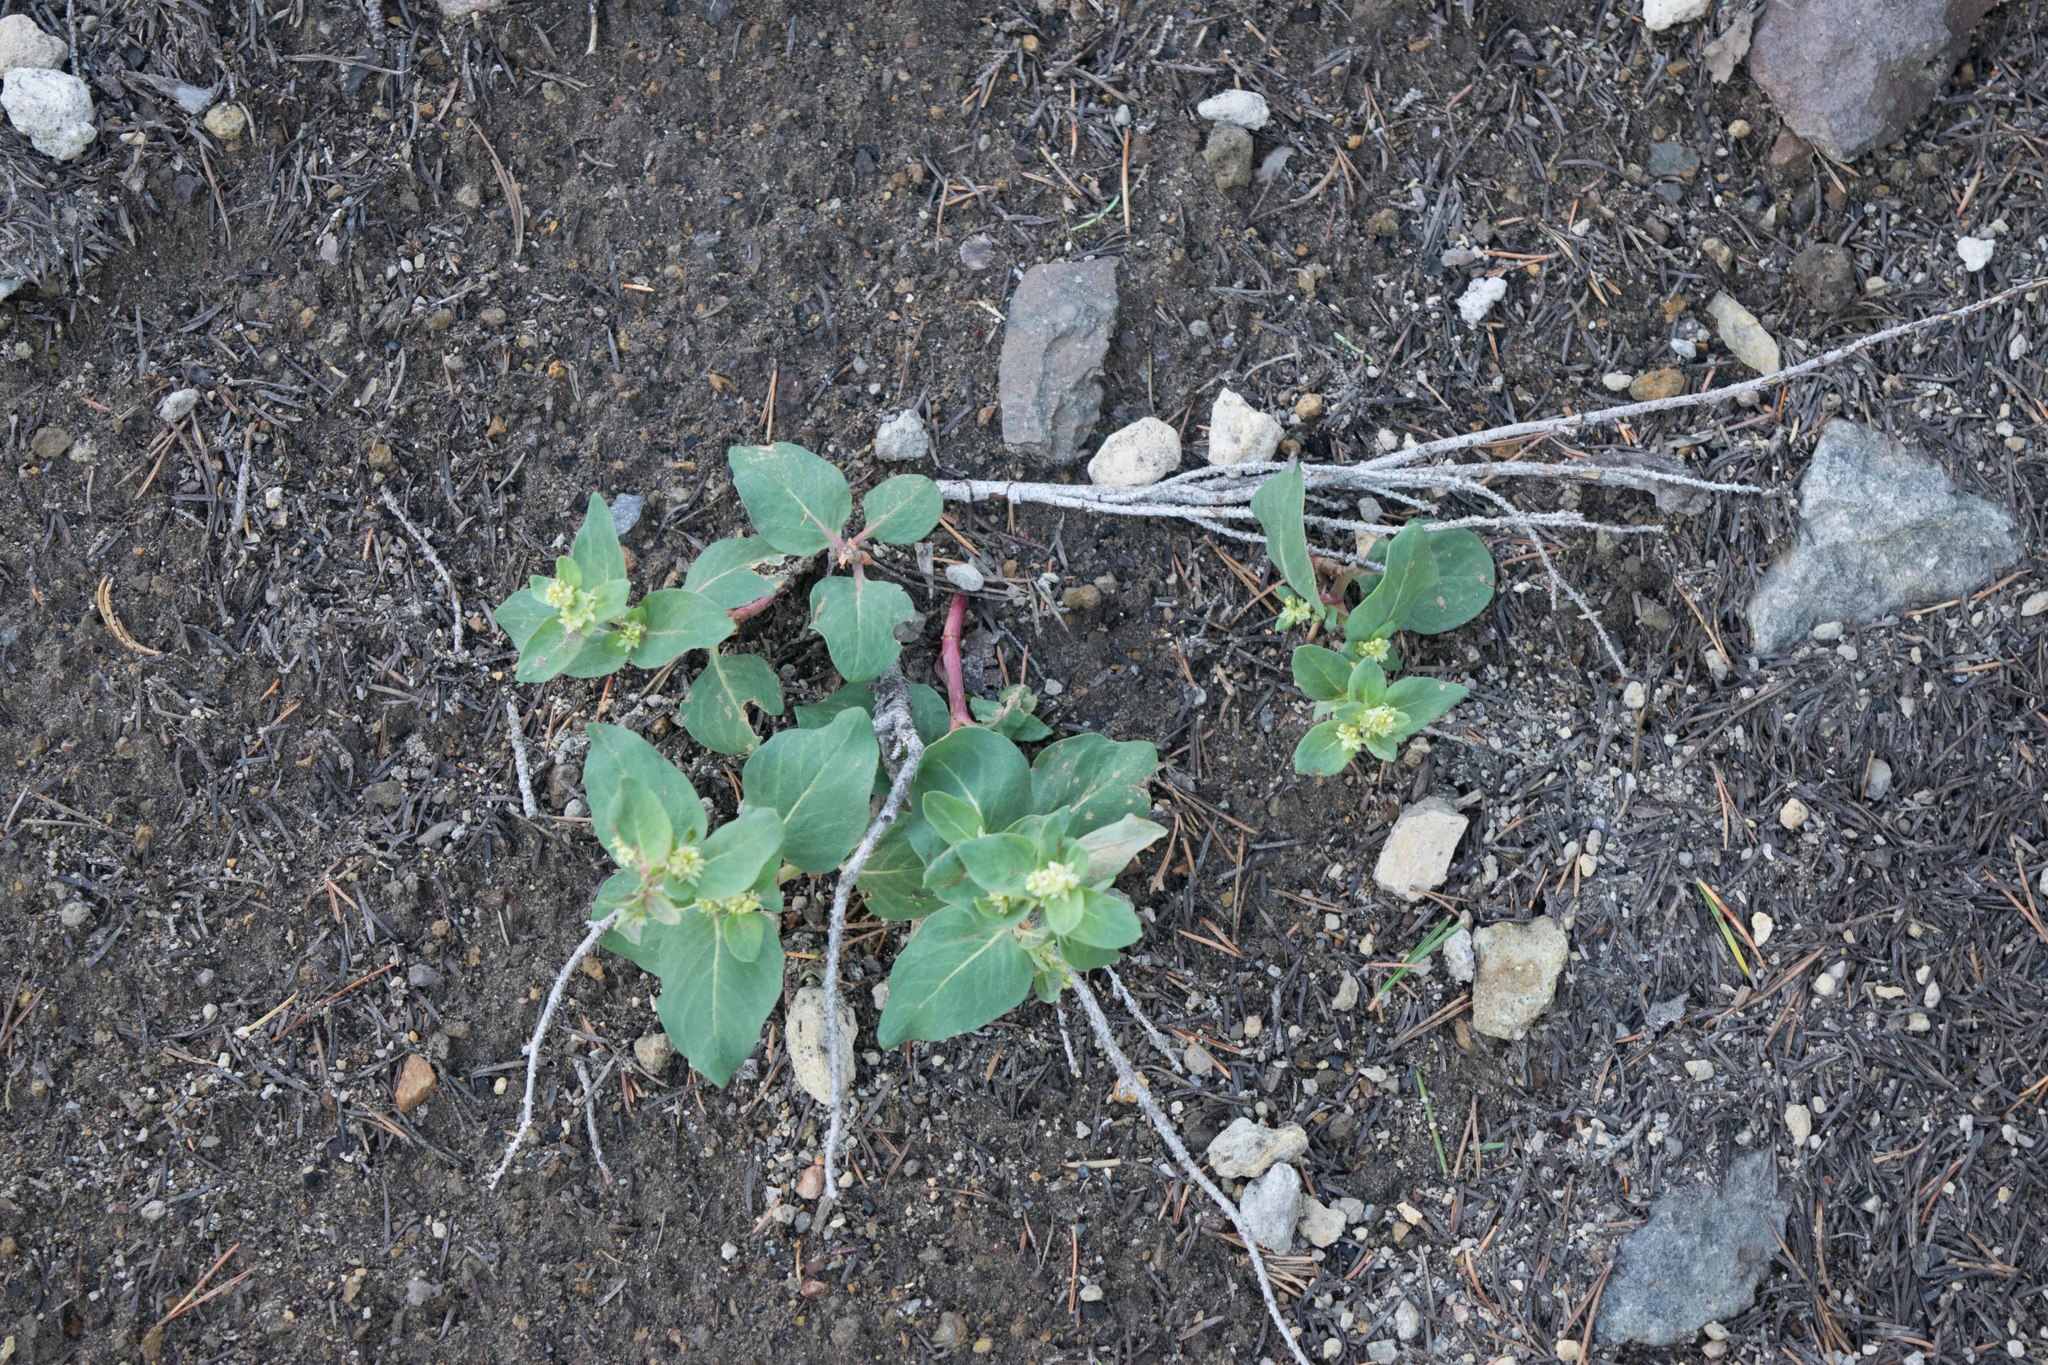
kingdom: Plantae
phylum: Tracheophyta
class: Magnoliopsida
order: Caryophyllales
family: Polygonaceae
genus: Koenigia
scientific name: Koenigia davisiae
